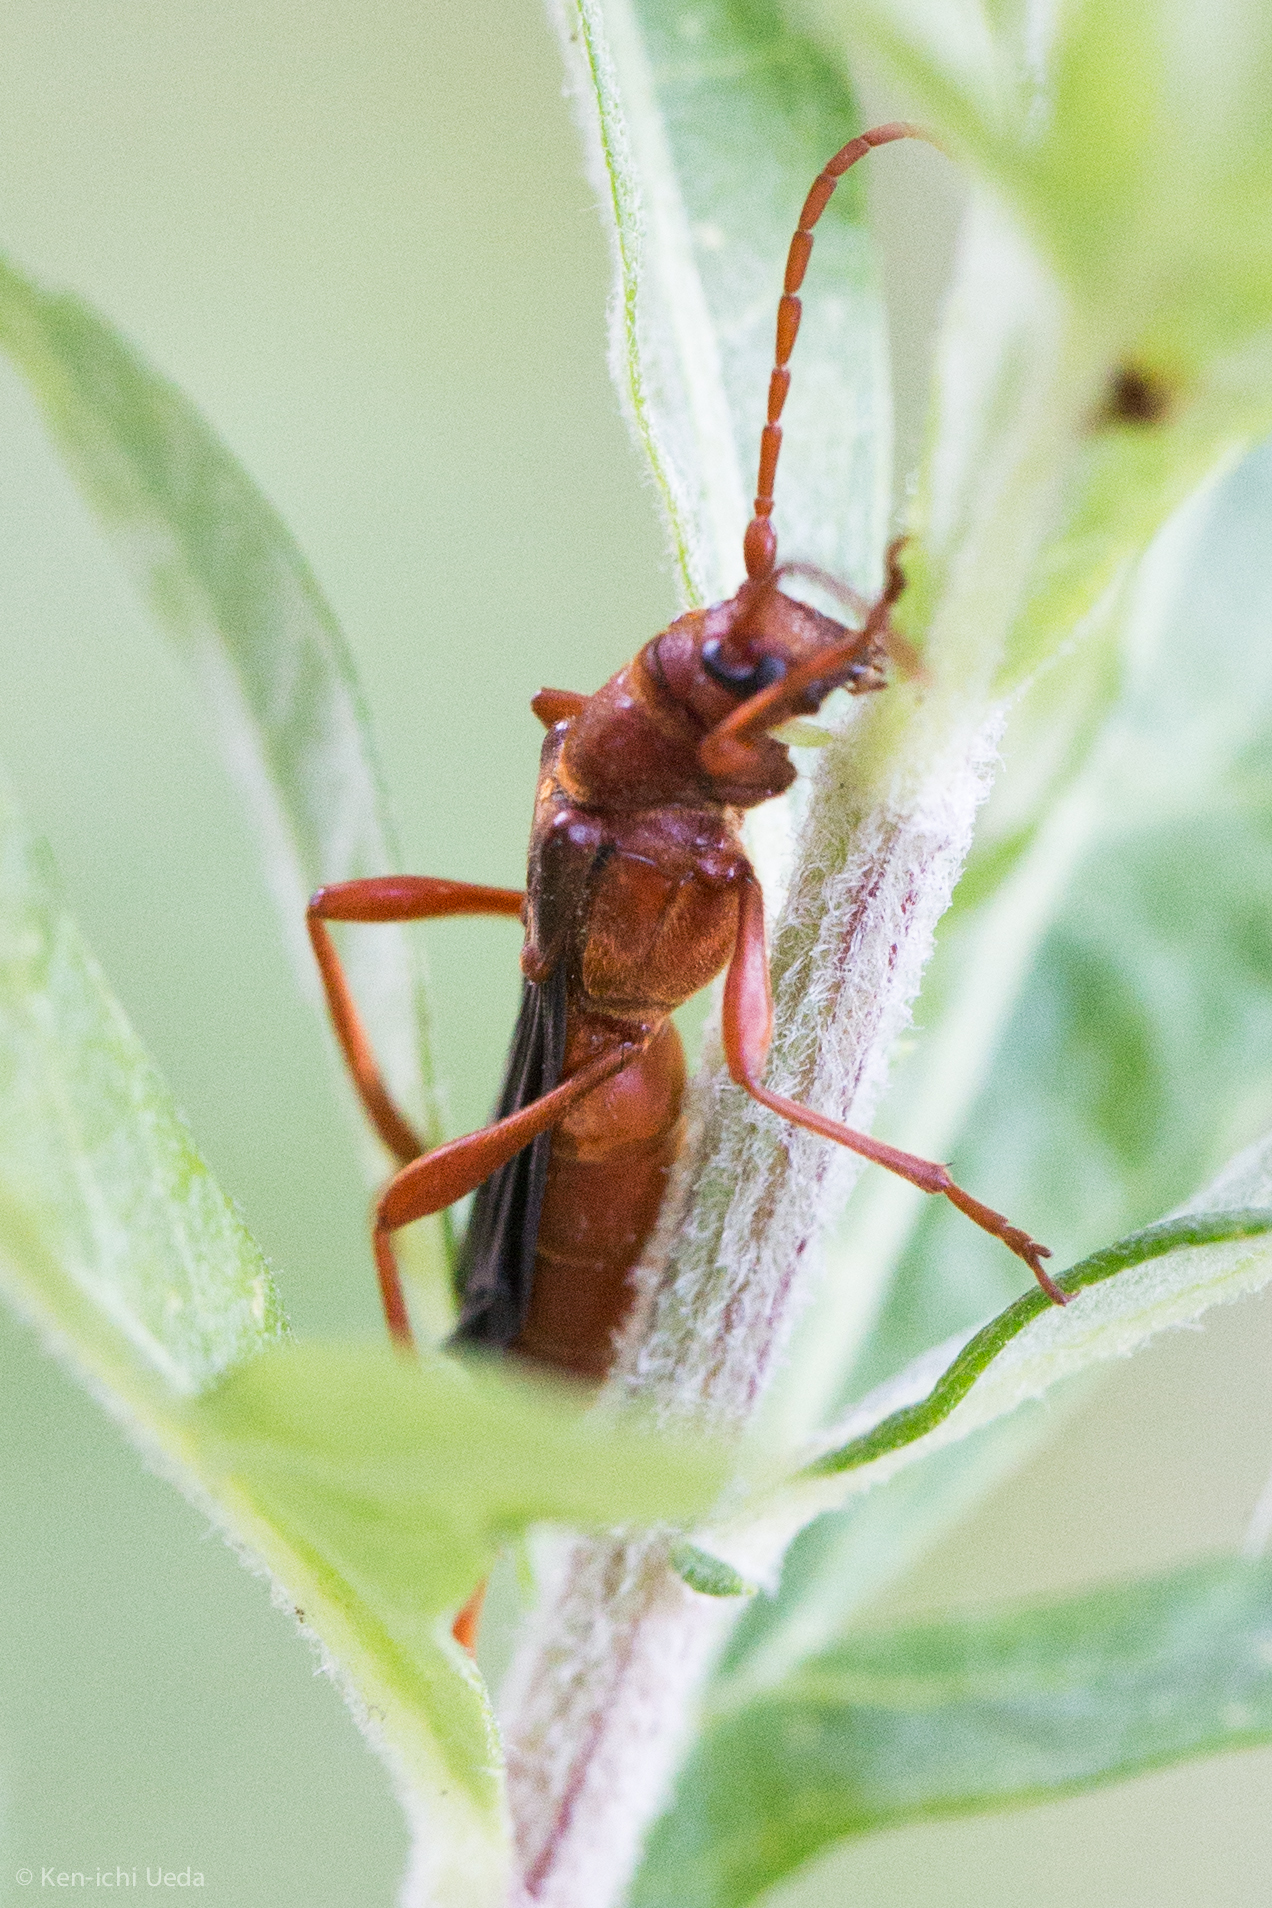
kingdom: Animalia
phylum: Arthropoda
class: Insecta
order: Coleoptera
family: Cerambycidae
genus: Necydalis
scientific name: Necydalis cavipennis
